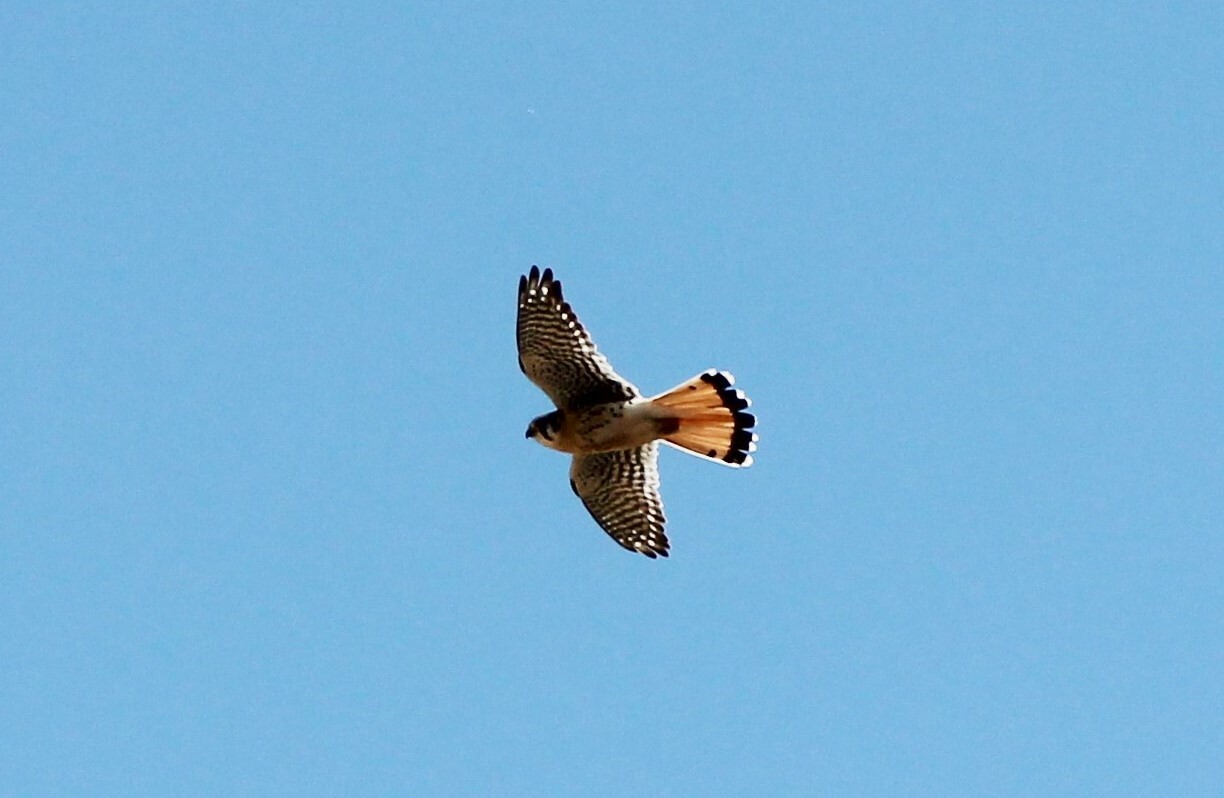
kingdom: Animalia
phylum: Chordata
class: Aves
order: Falconiformes
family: Falconidae
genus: Falco
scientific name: Falco sparverius
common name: American kestrel
